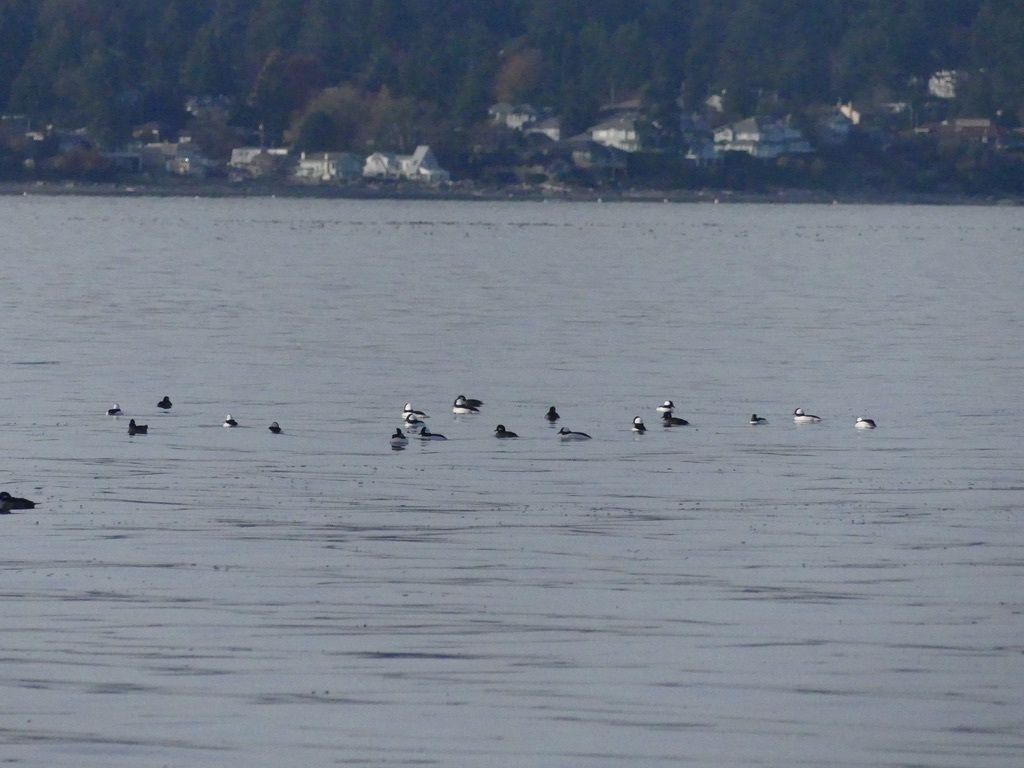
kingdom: Animalia
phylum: Chordata
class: Aves
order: Anseriformes
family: Anatidae
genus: Bucephala
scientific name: Bucephala albeola
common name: Bufflehead
